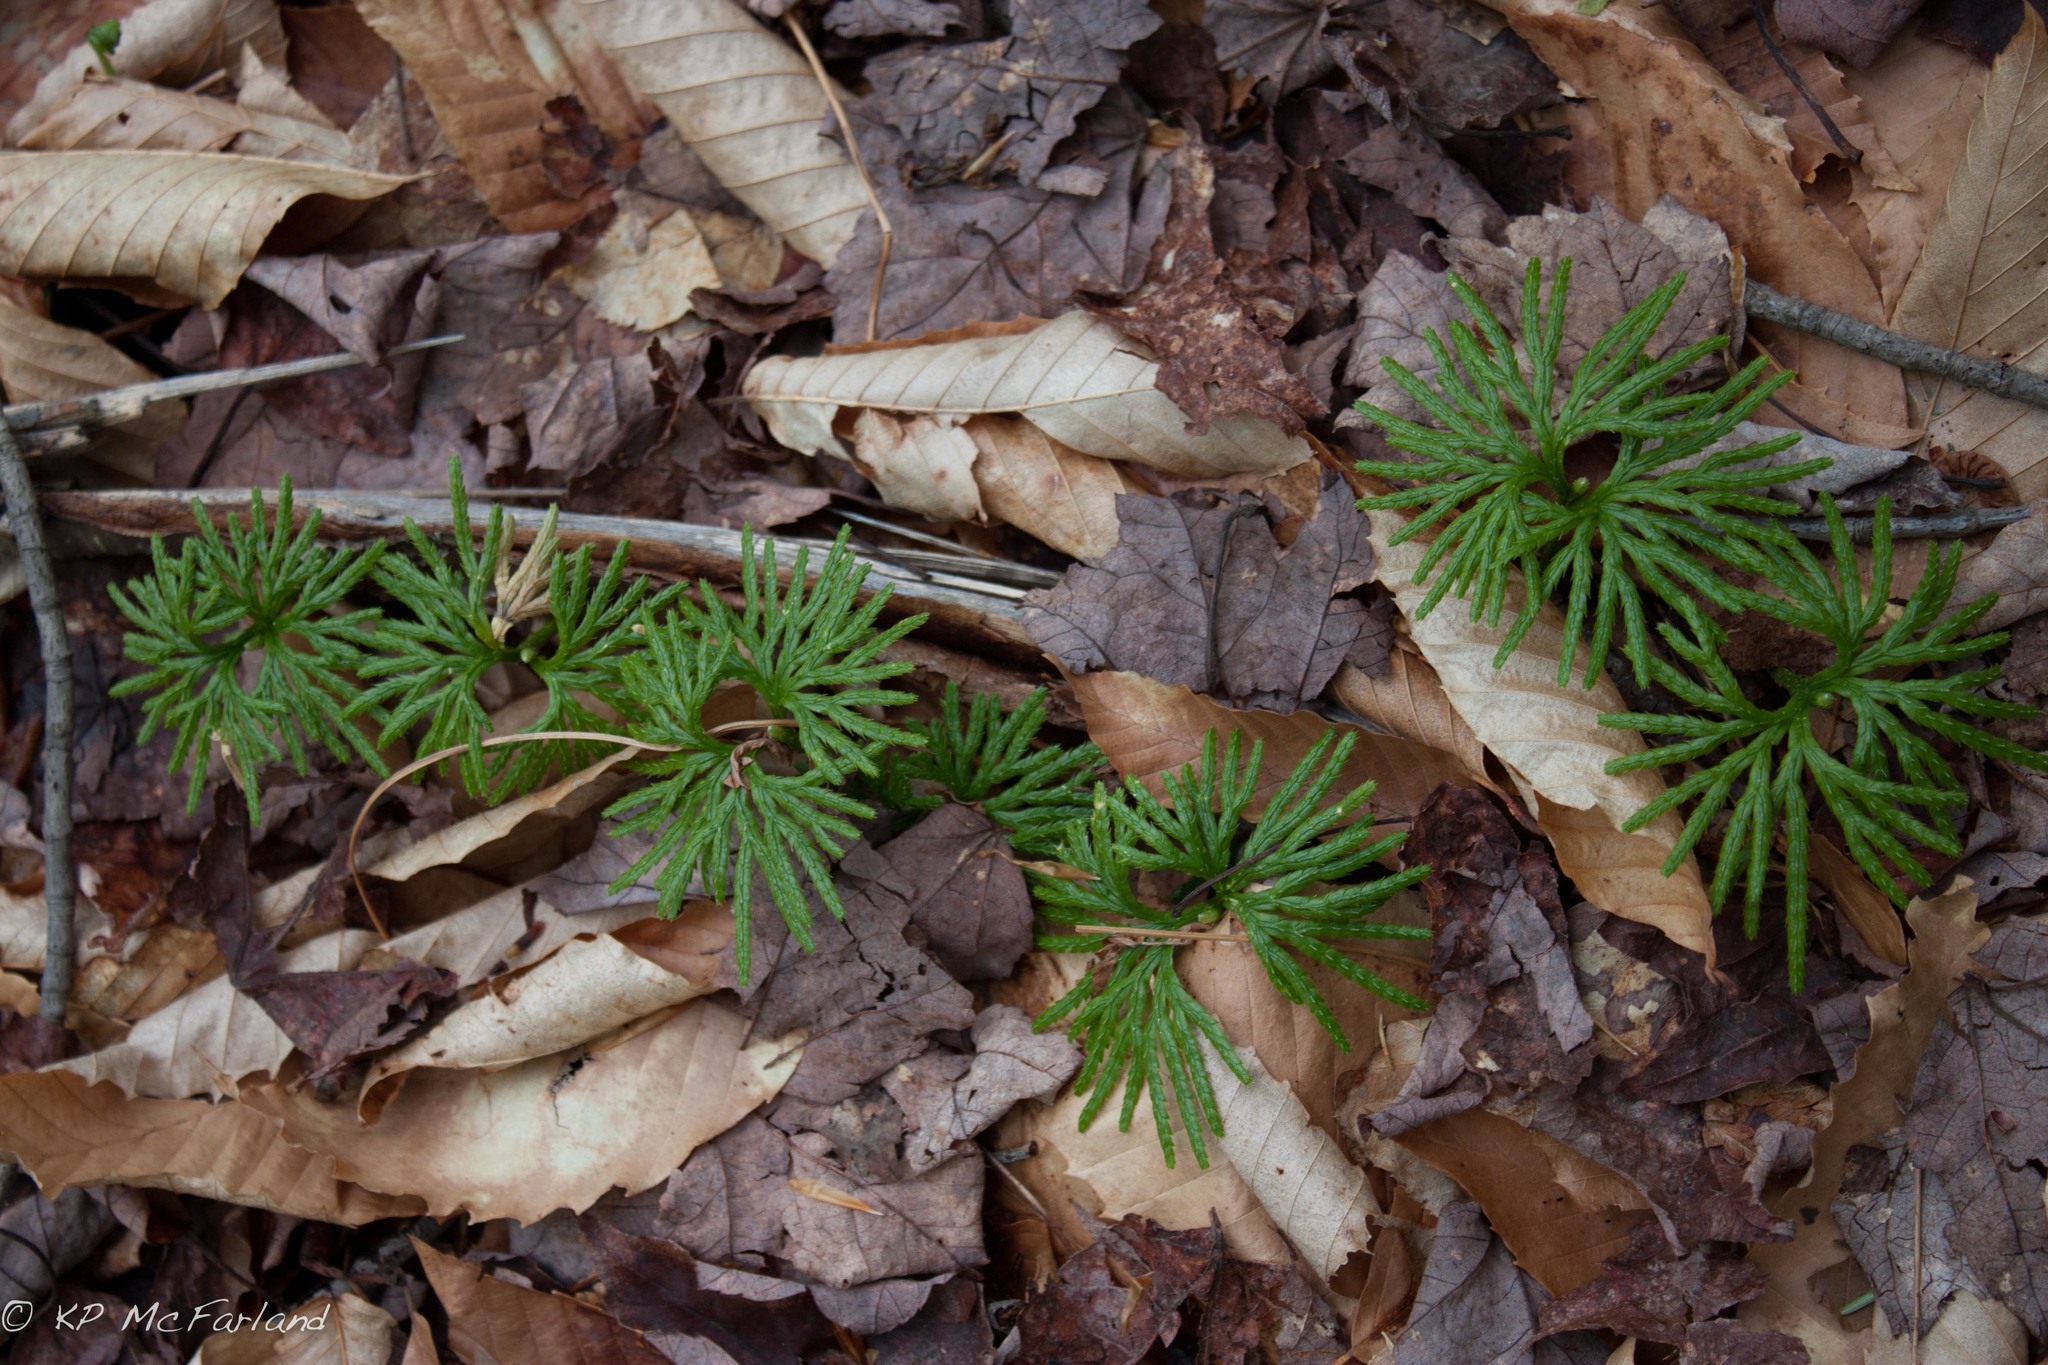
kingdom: Plantae
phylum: Tracheophyta
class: Lycopodiopsida
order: Lycopodiales
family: Lycopodiaceae
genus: Diphasiastrum
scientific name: Diphasiastrum digitatum
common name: Southern running-pine
